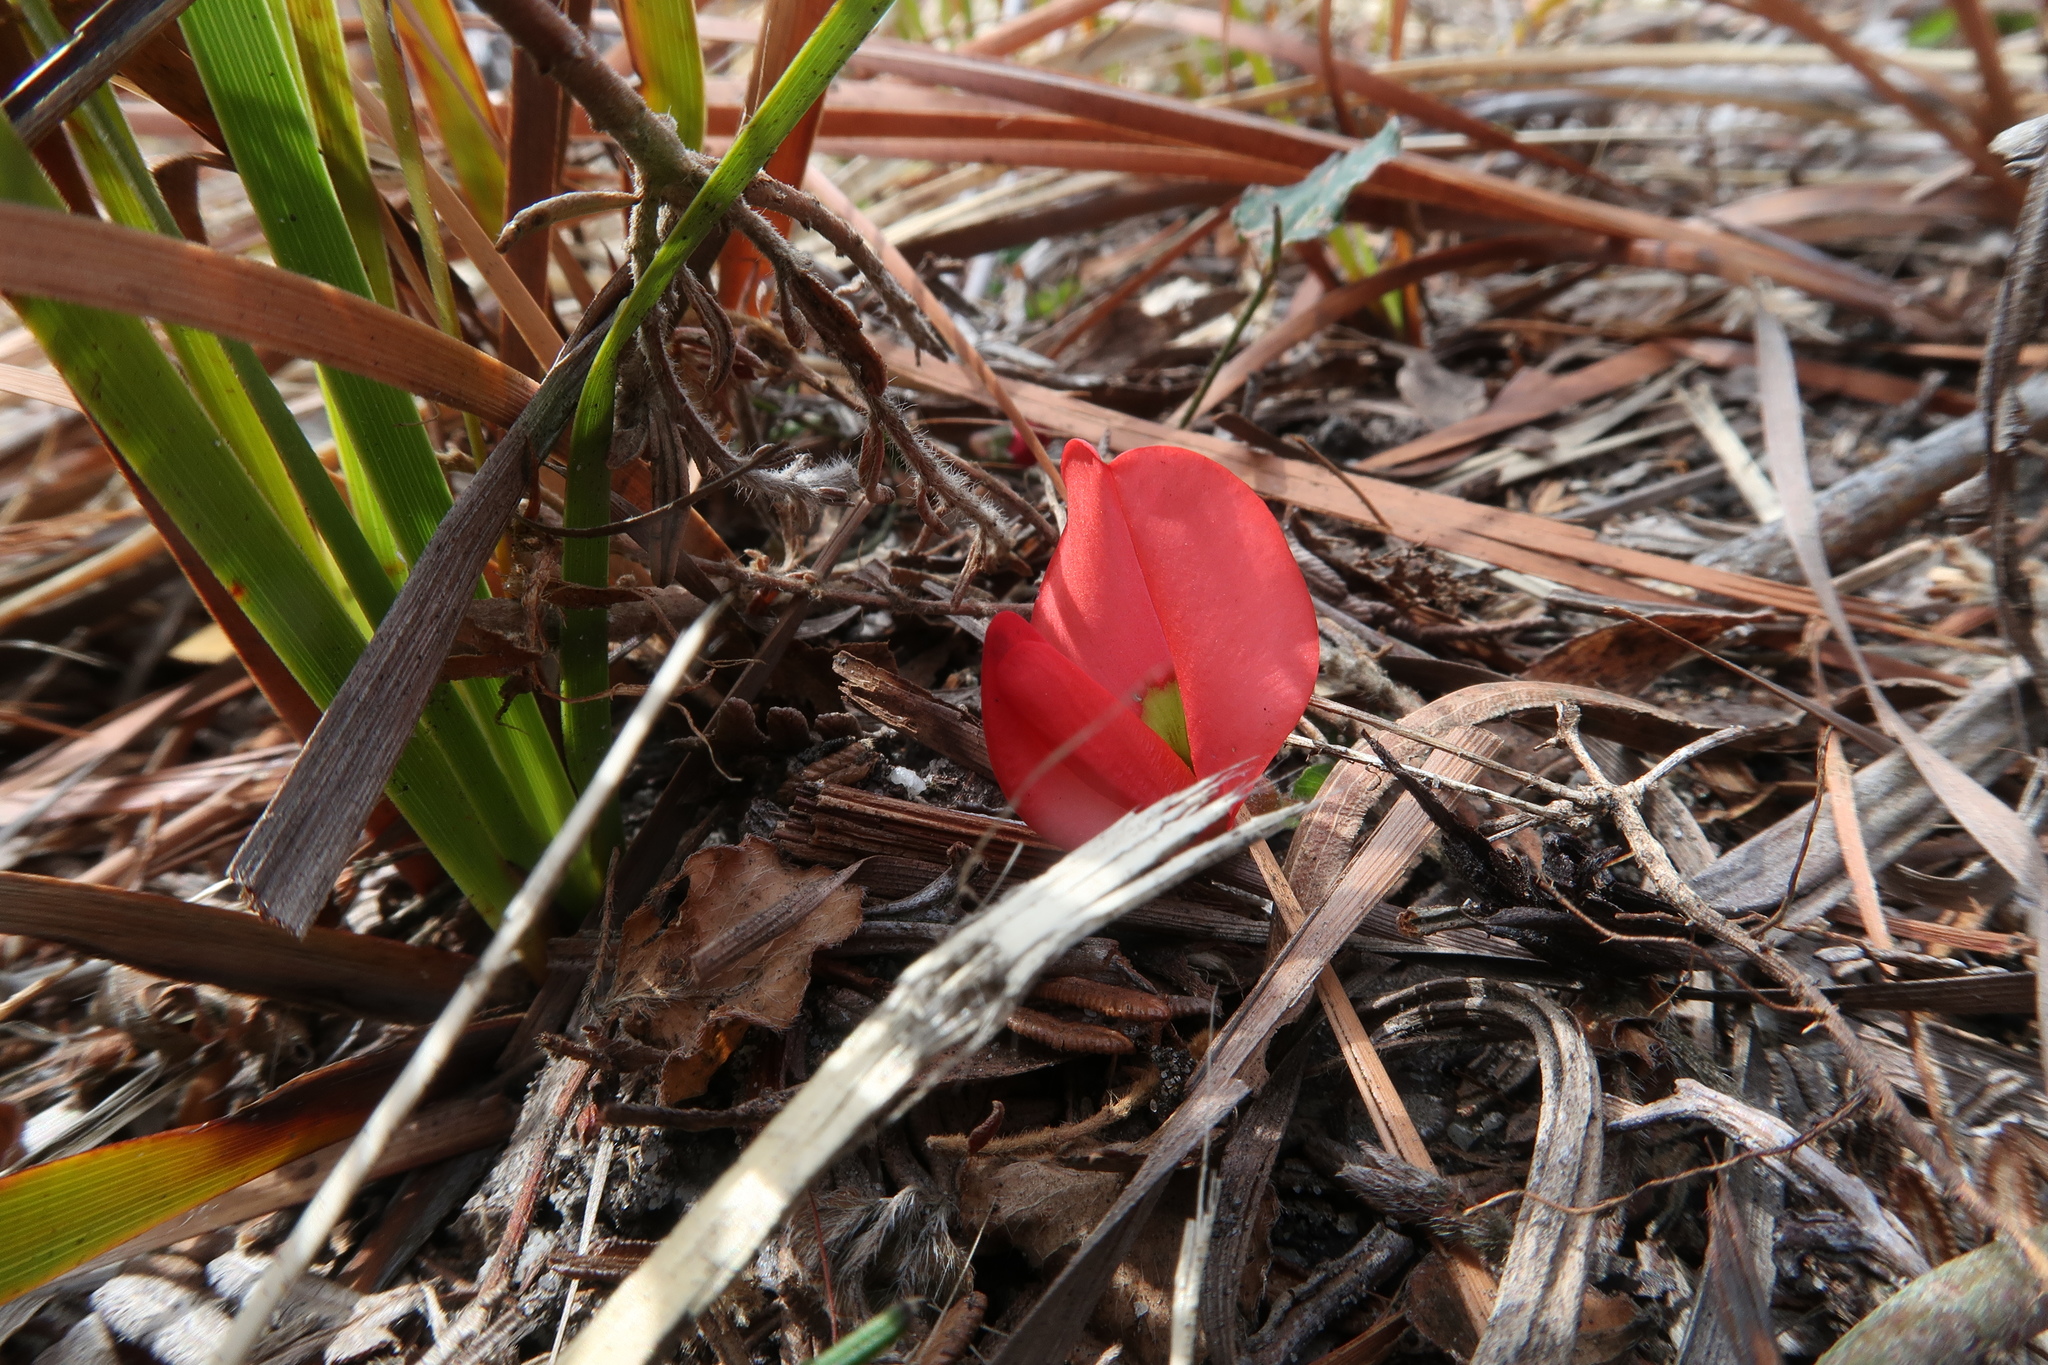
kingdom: Plantae
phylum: Tracheophyta
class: Magnoliopsida
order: Fabales
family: Fabaceae
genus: Kennedia
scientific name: Kennedia prostrata
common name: Running-postman
